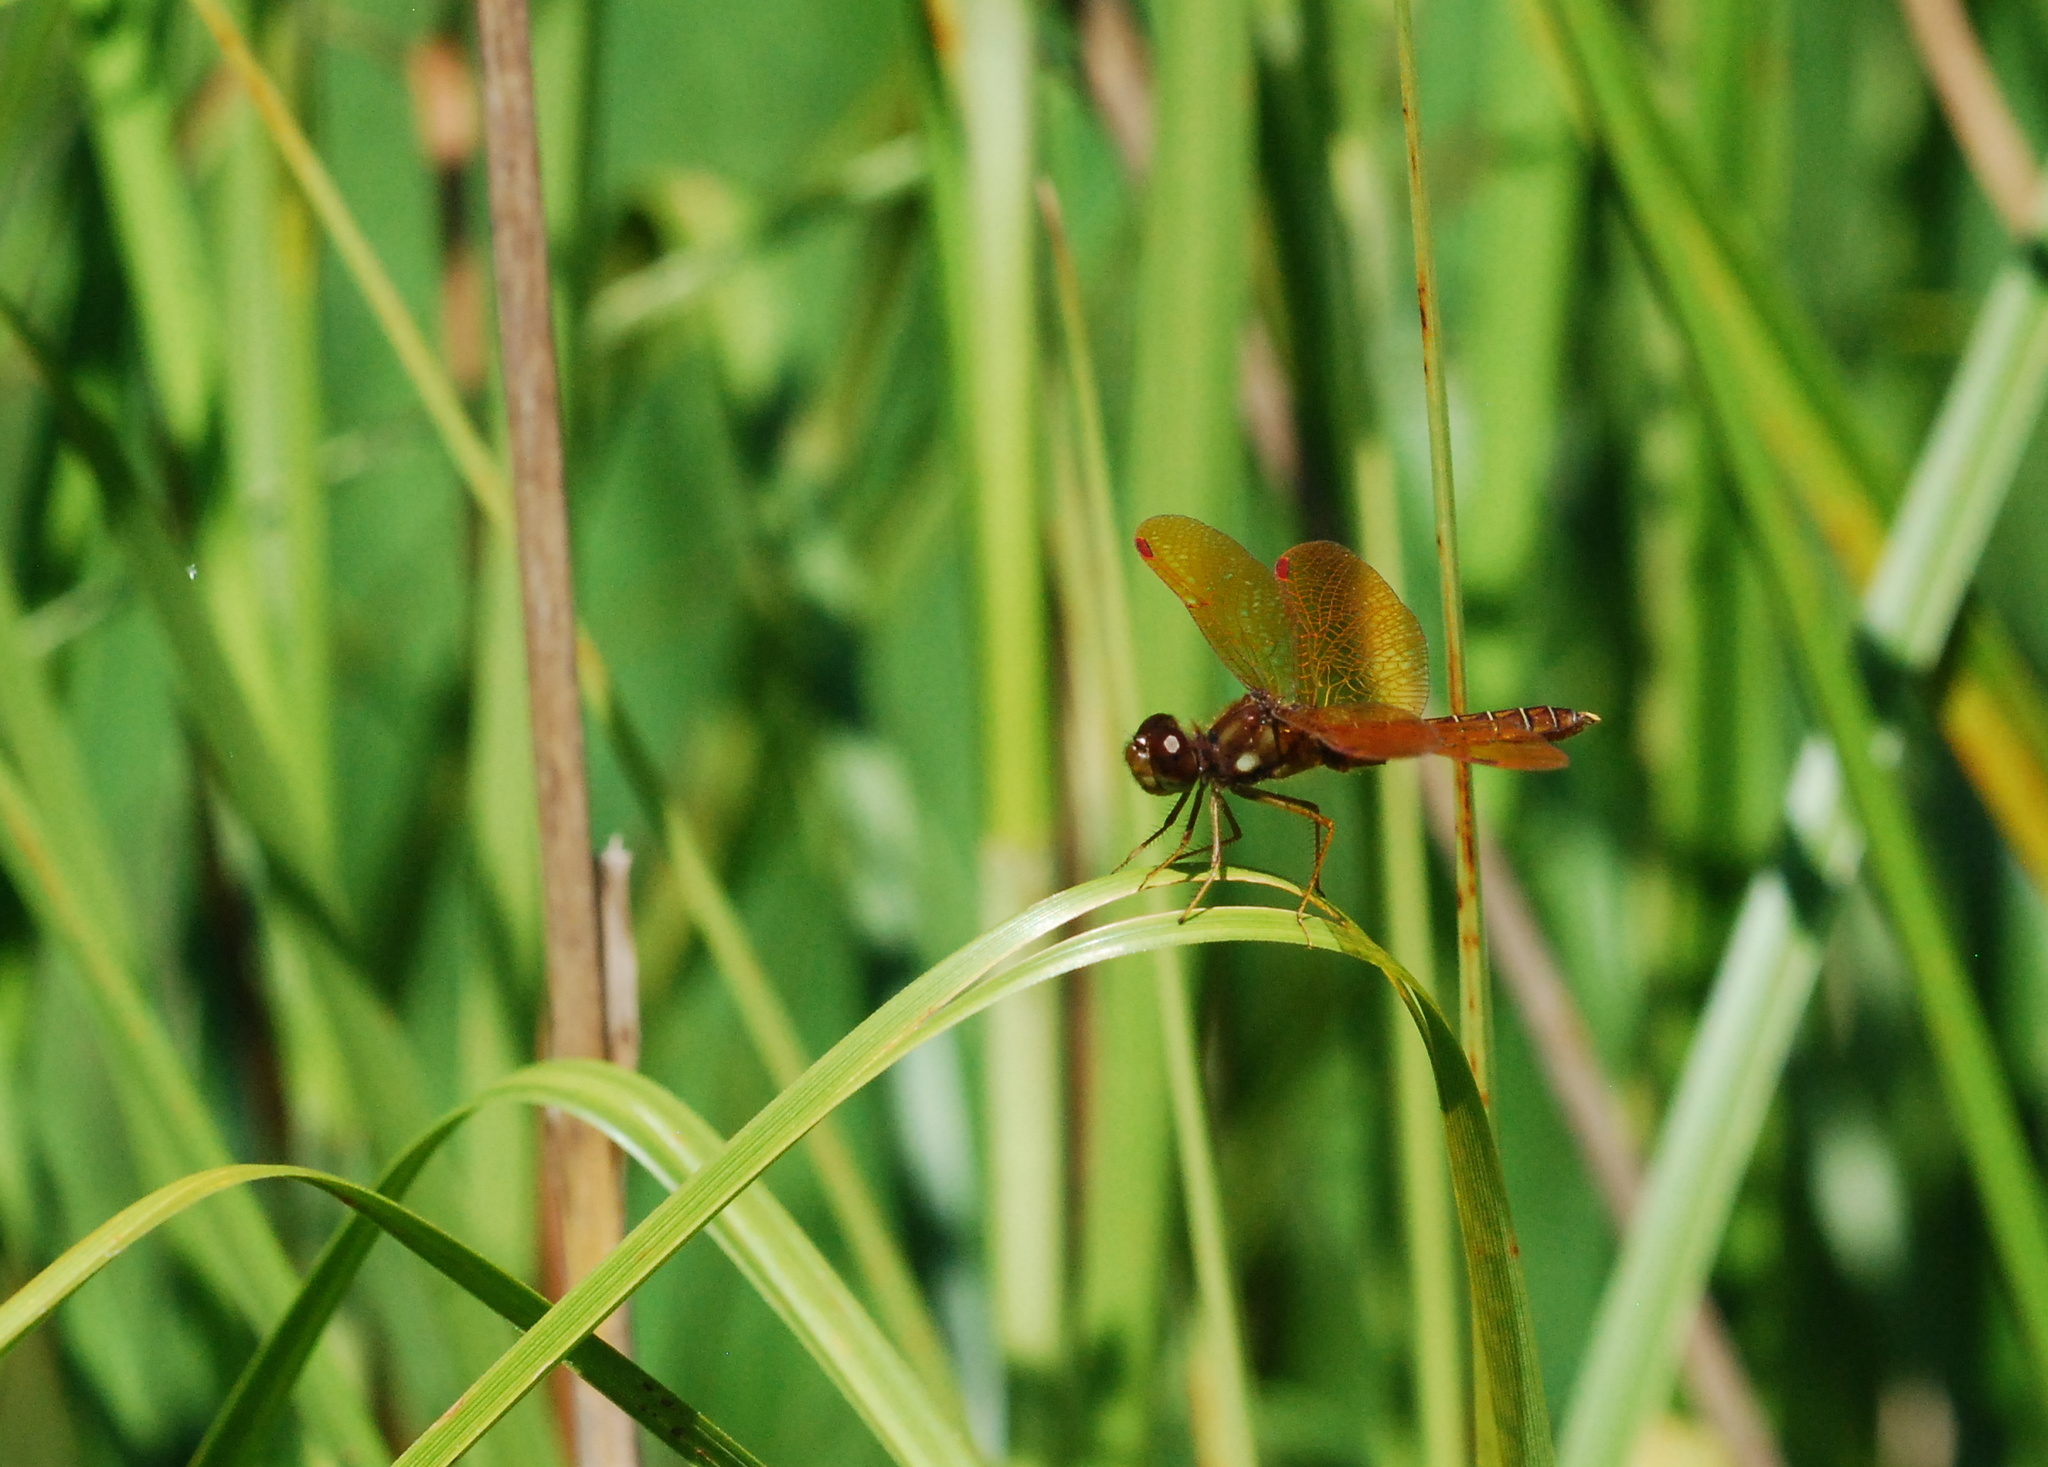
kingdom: Animalia
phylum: Arthropoda
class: Insecta
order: Odonata
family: Libellulidae
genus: Perithemis
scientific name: Perithemis tenera
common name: Eastern amberwing
